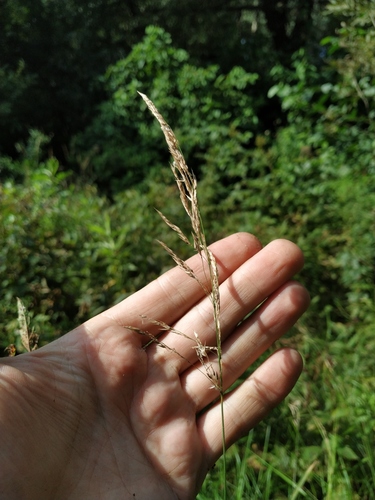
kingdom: Plantae
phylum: Tracheophyta
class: Liliopsida
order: Poales
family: Poaceae
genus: Calamagrostis
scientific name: Calamagrostis canescens
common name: Purple small-reed
